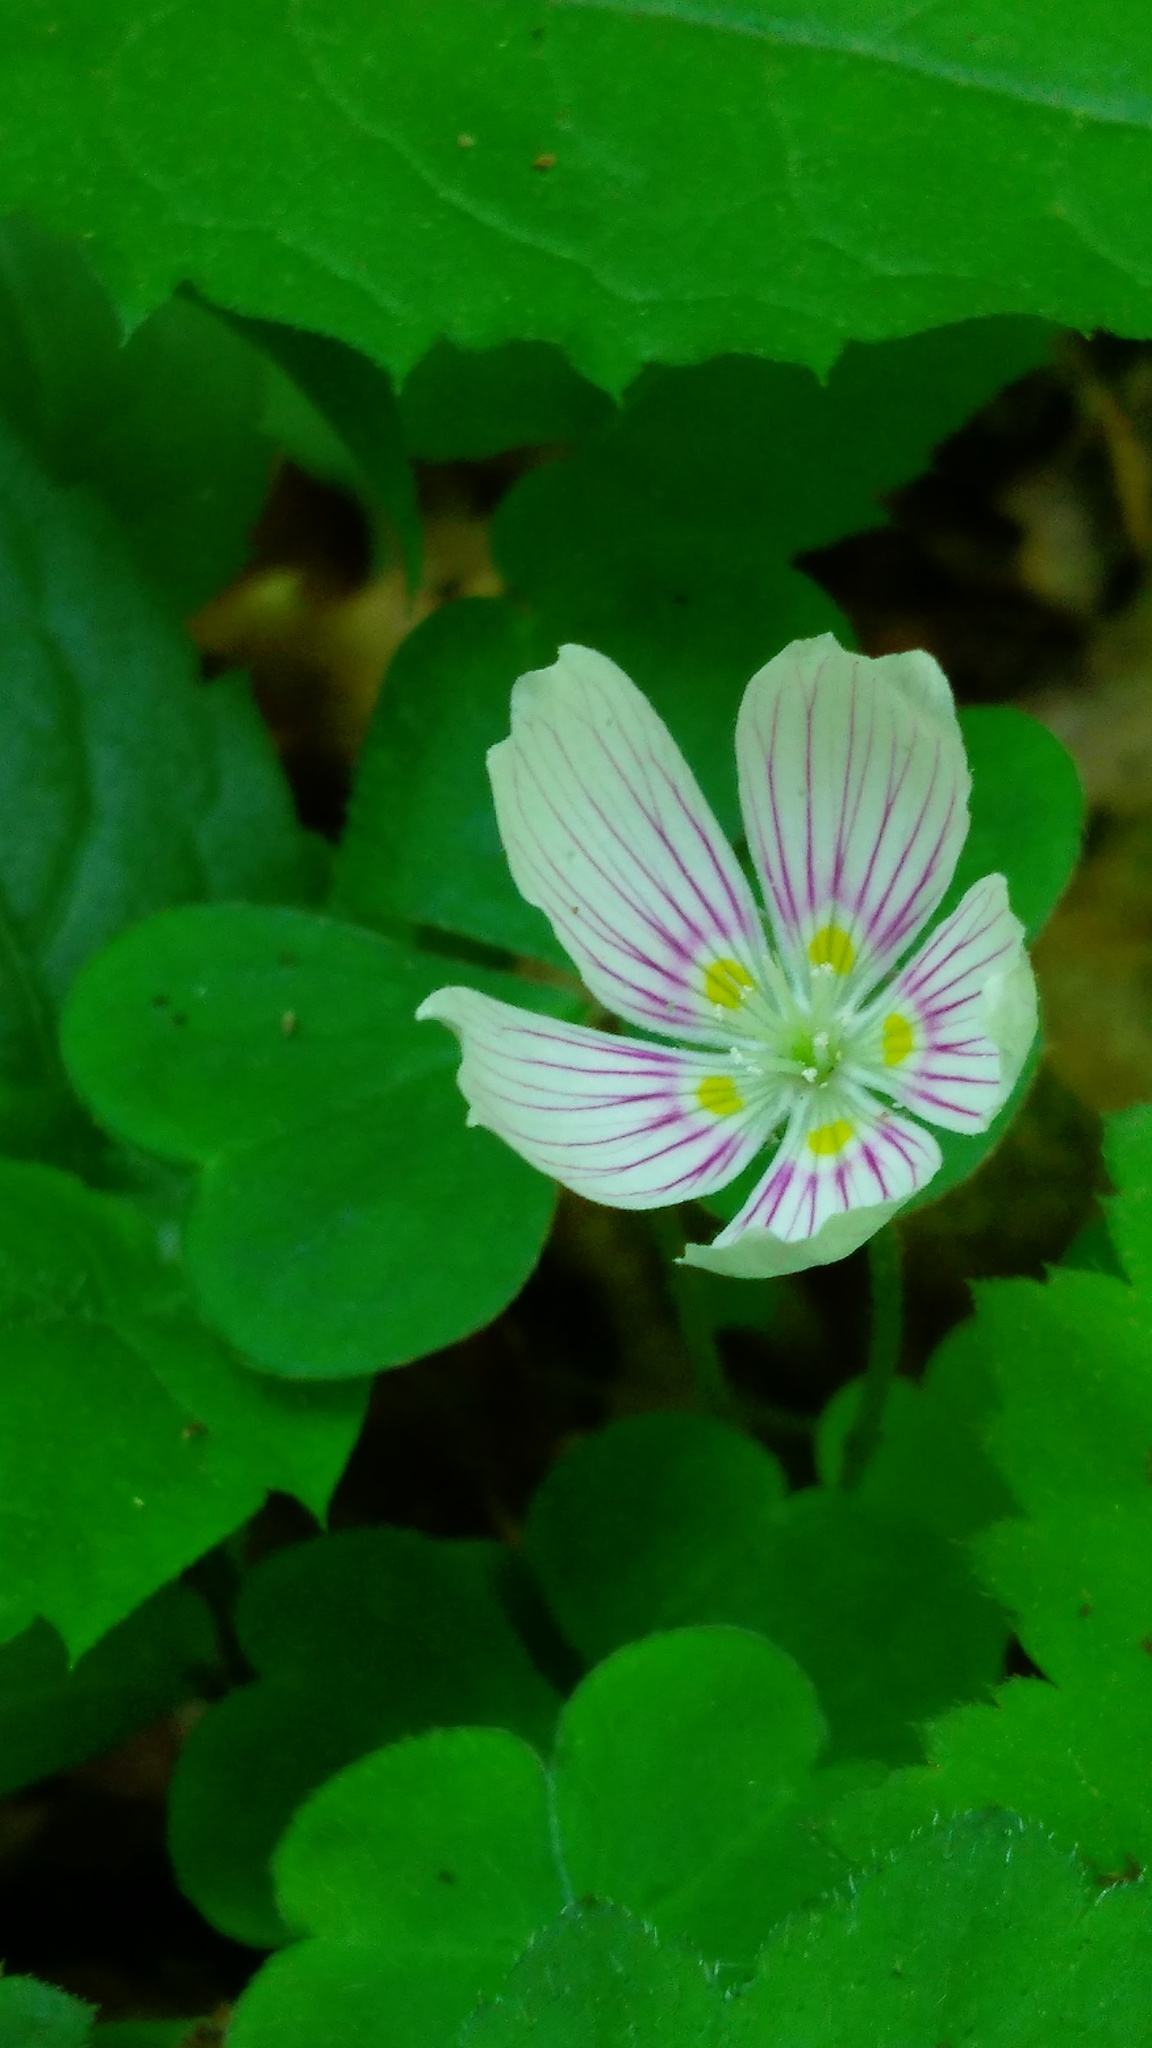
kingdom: Plantae
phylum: Tracheophyta
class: Magnoliopsida
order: Oxalidales
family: Oxalidaceae
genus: Oxalis
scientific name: Oxalis montana
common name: American wood-sorrel
